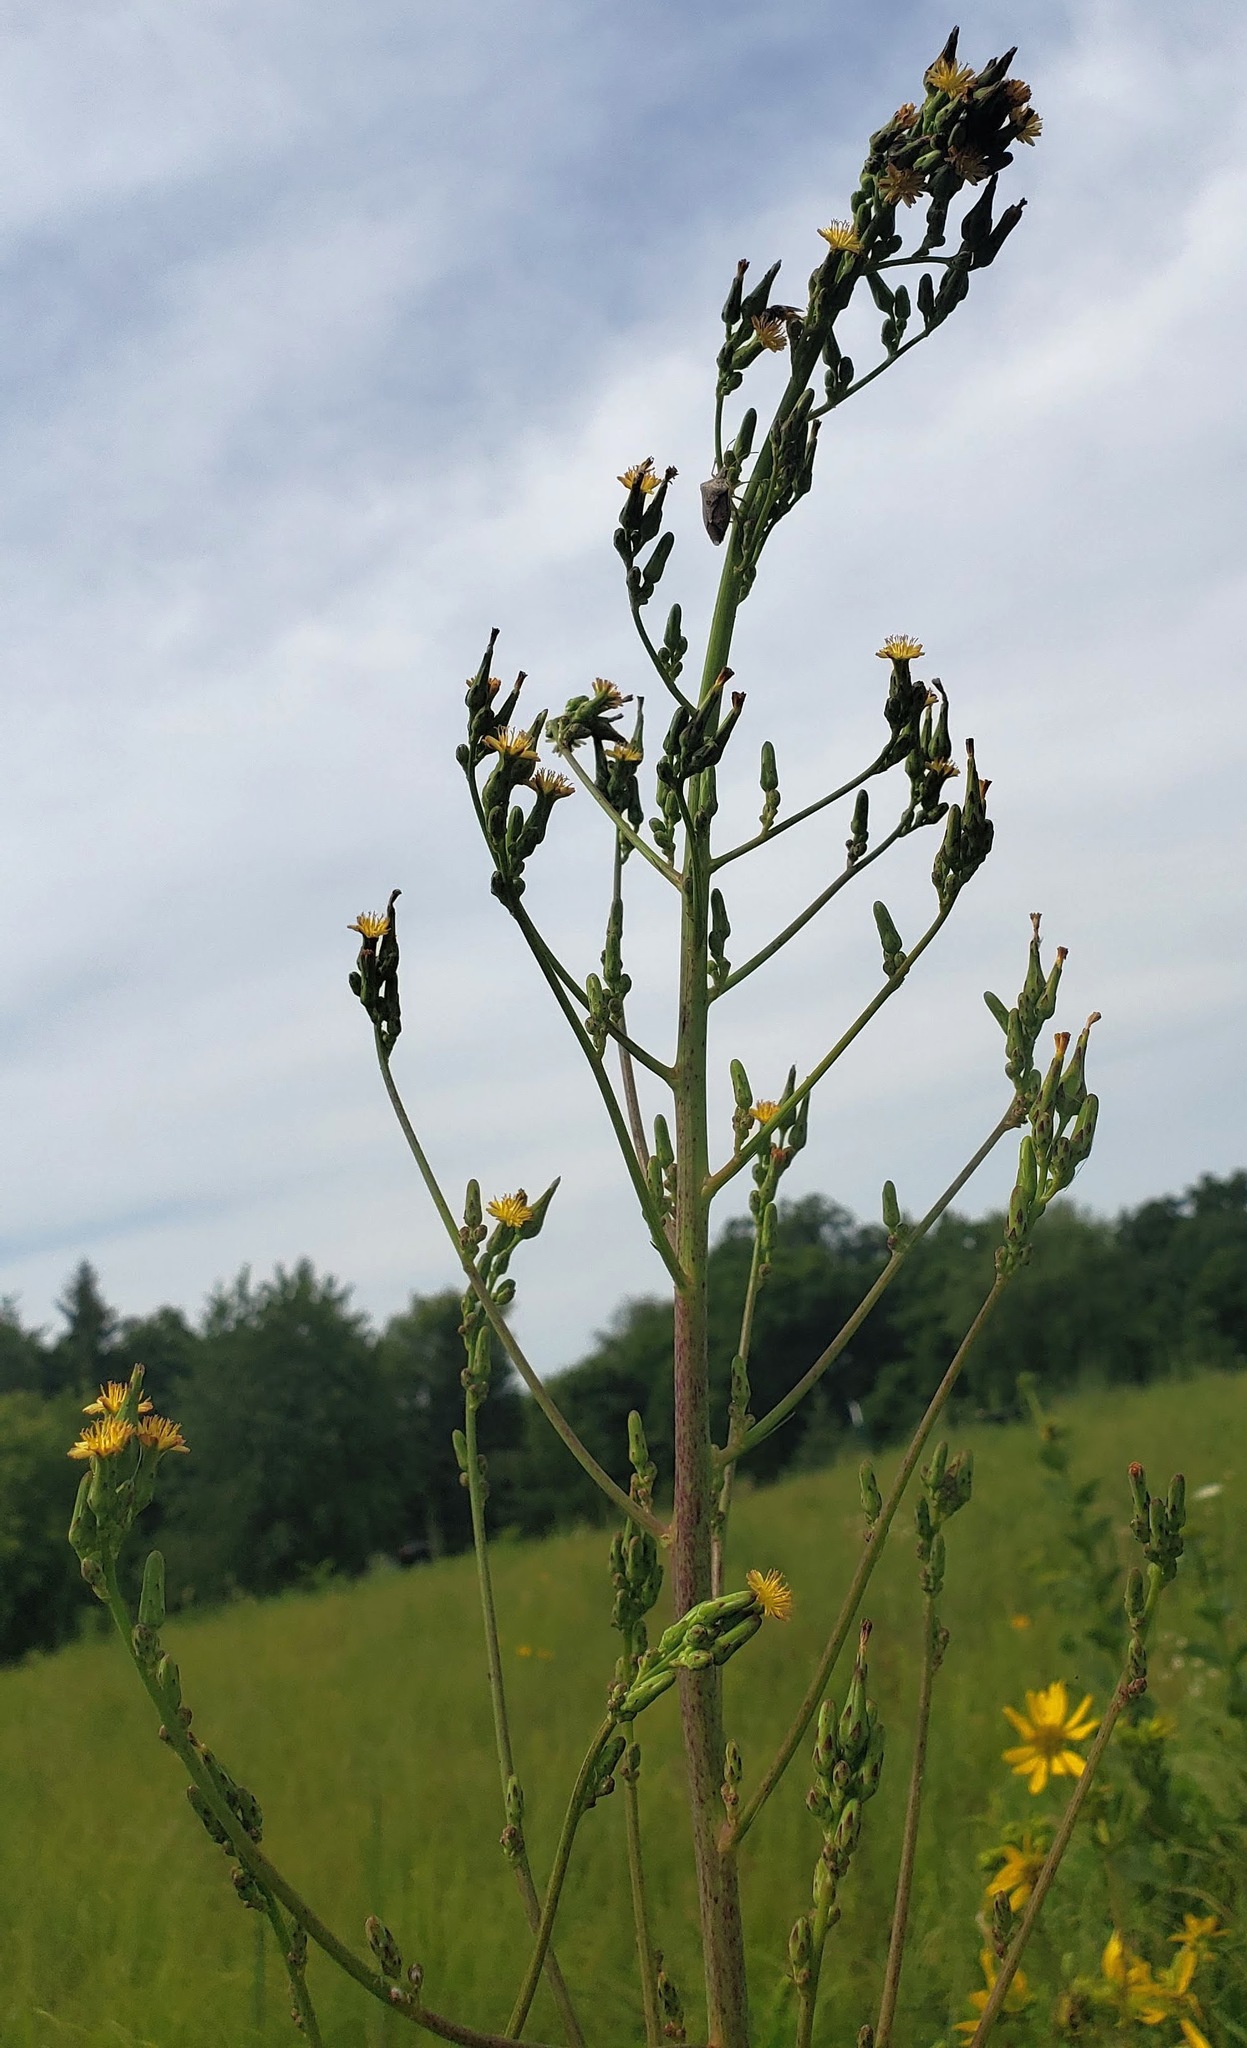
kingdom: Plantae
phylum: Tracheophyta
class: Magnoliopsida
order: Asterales
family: Asteraceae
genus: Lactuca
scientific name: Lactuca canadensis
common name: Canada lettuce
